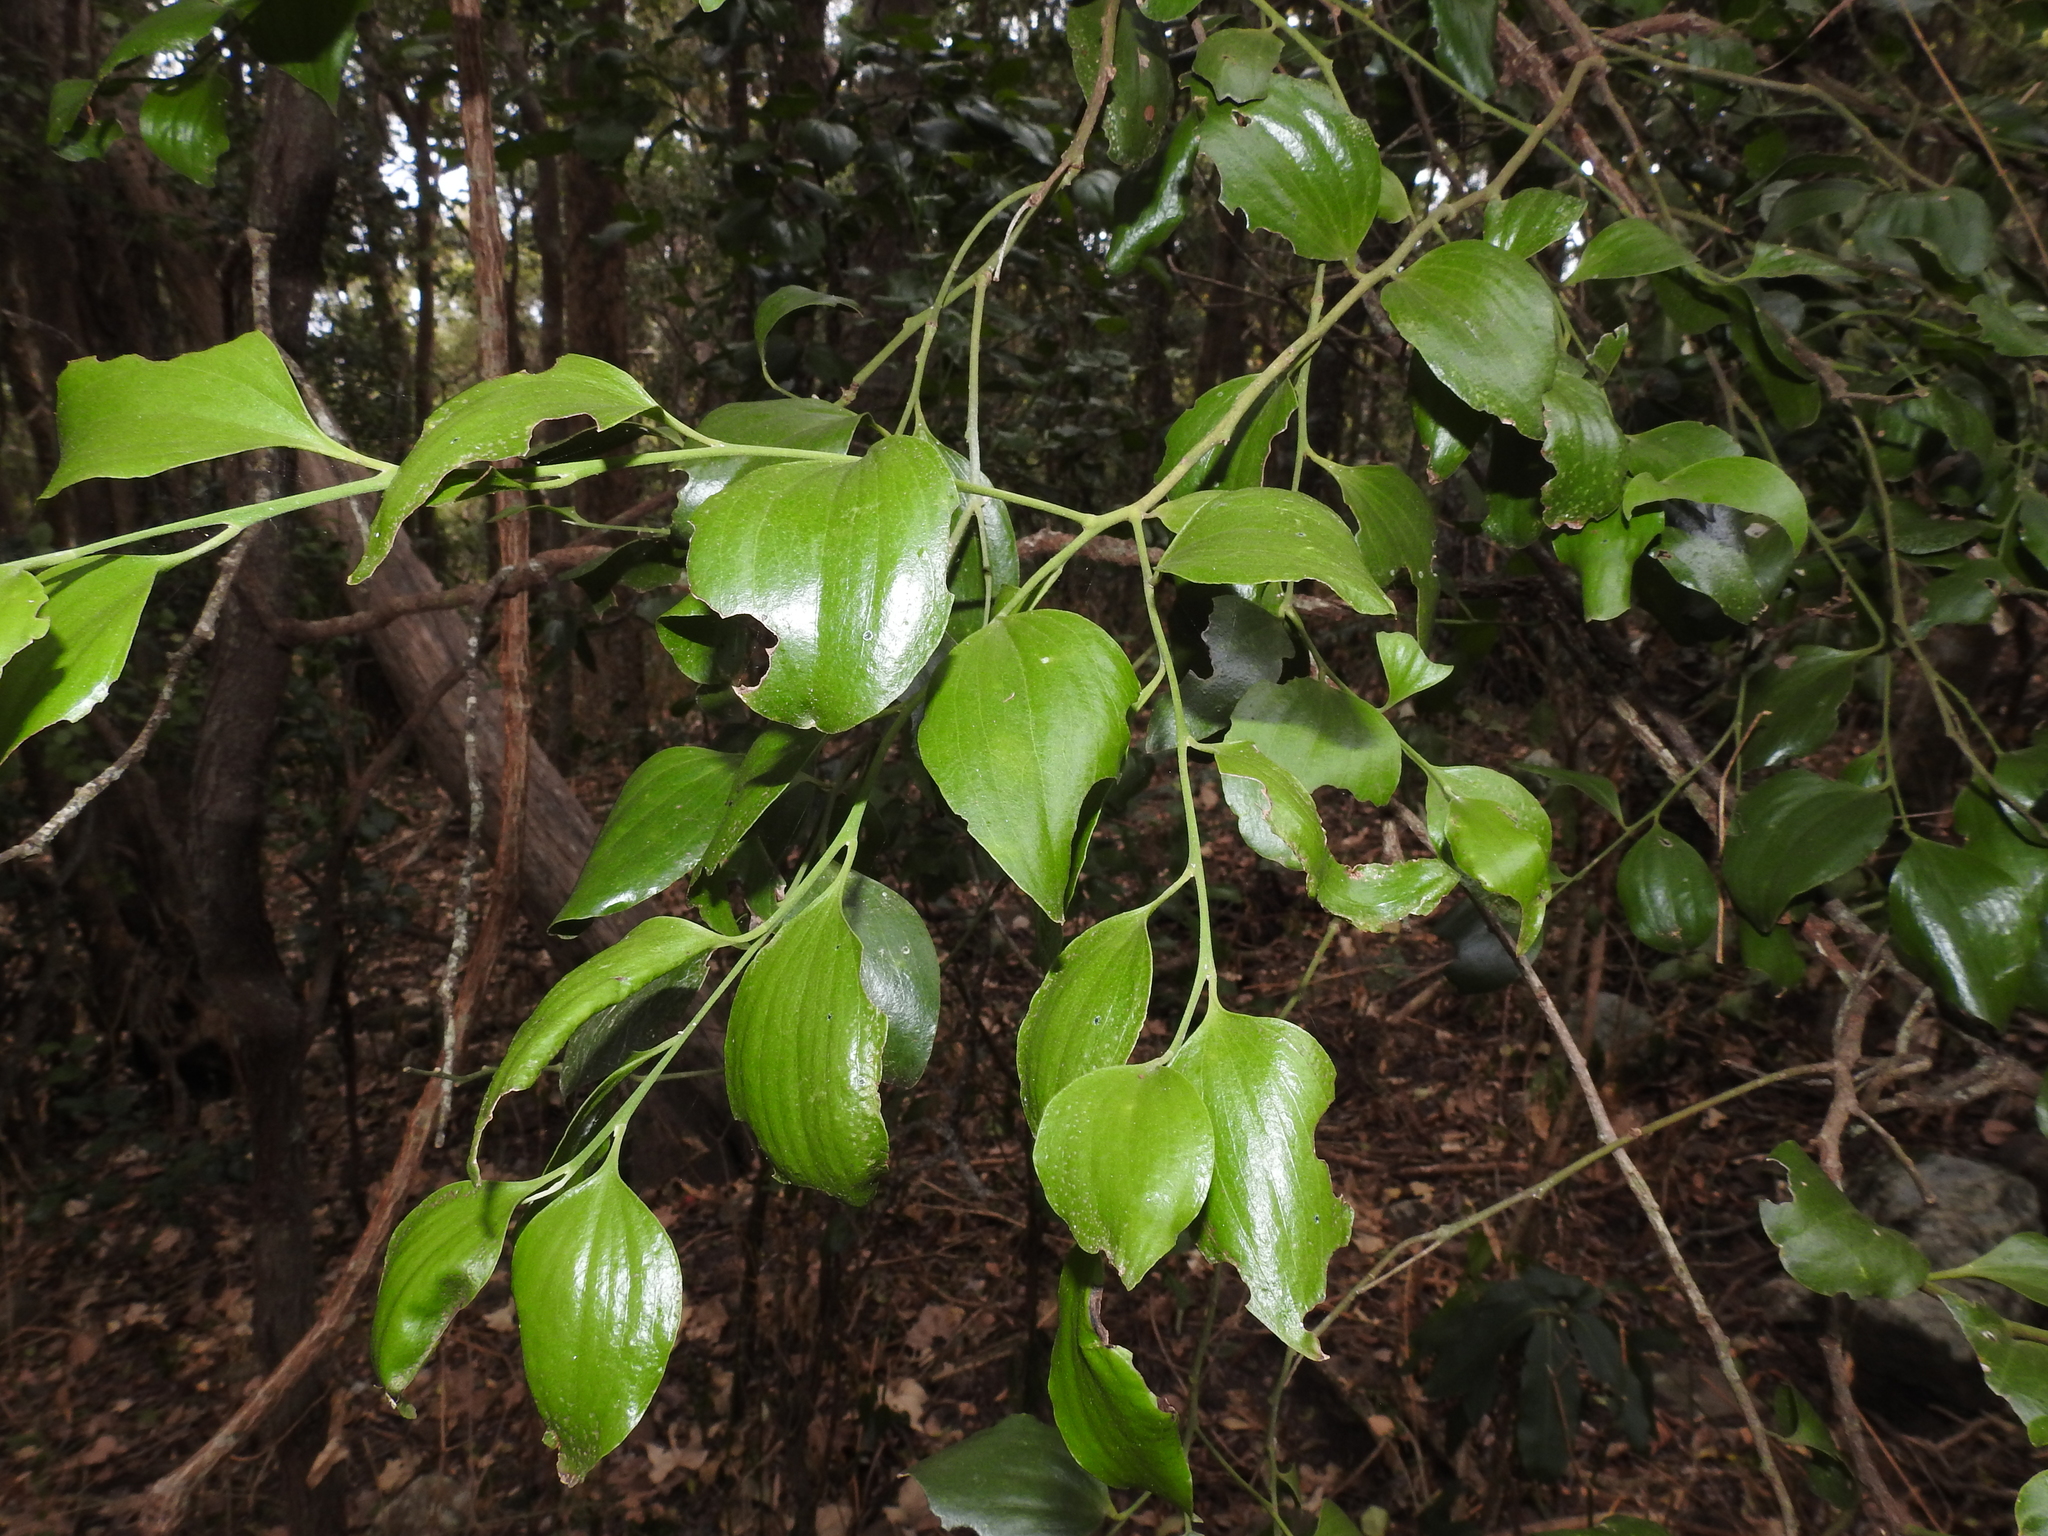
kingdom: Plantae
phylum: Tracheophyta
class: Magnoliopsida
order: Santalales
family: Santalaceae
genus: Exocarpos
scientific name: Exocarpos latifolius
